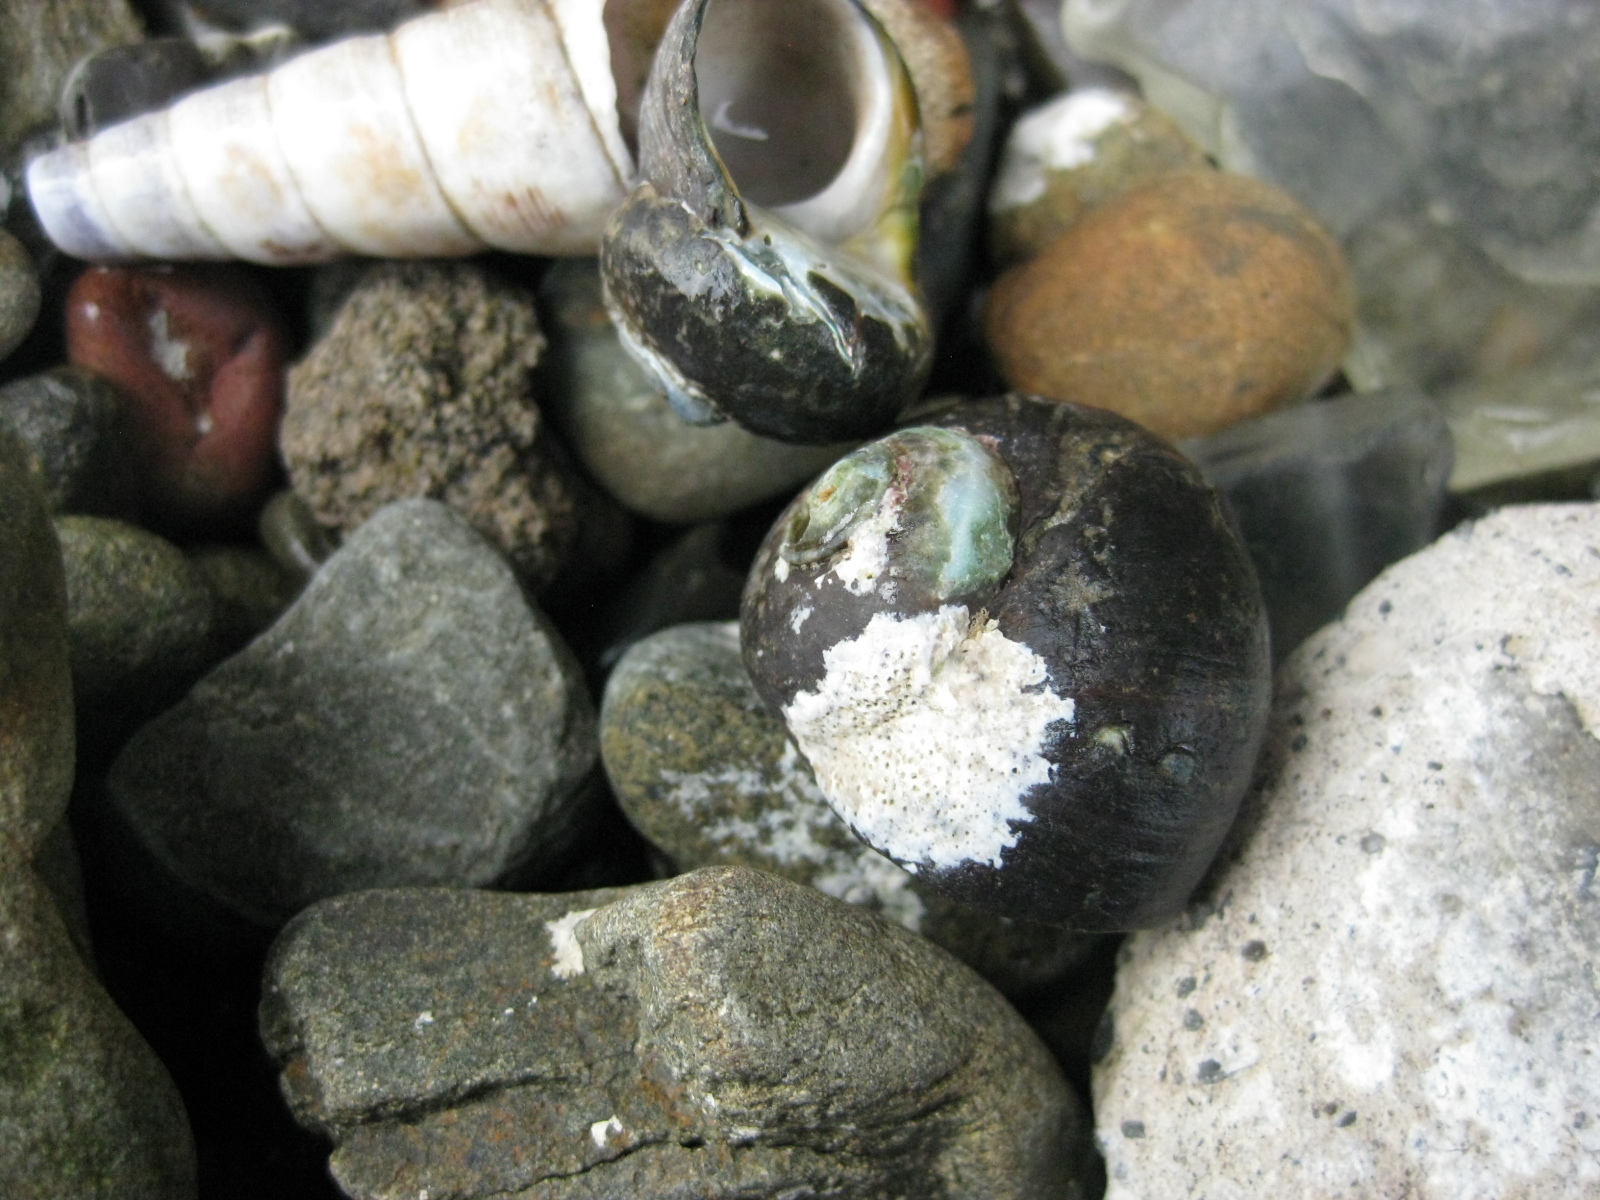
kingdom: Animalia
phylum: Mollusca
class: Gastropoda
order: Trochida
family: Turbinidae
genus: Lunella
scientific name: Lunella smaragda
